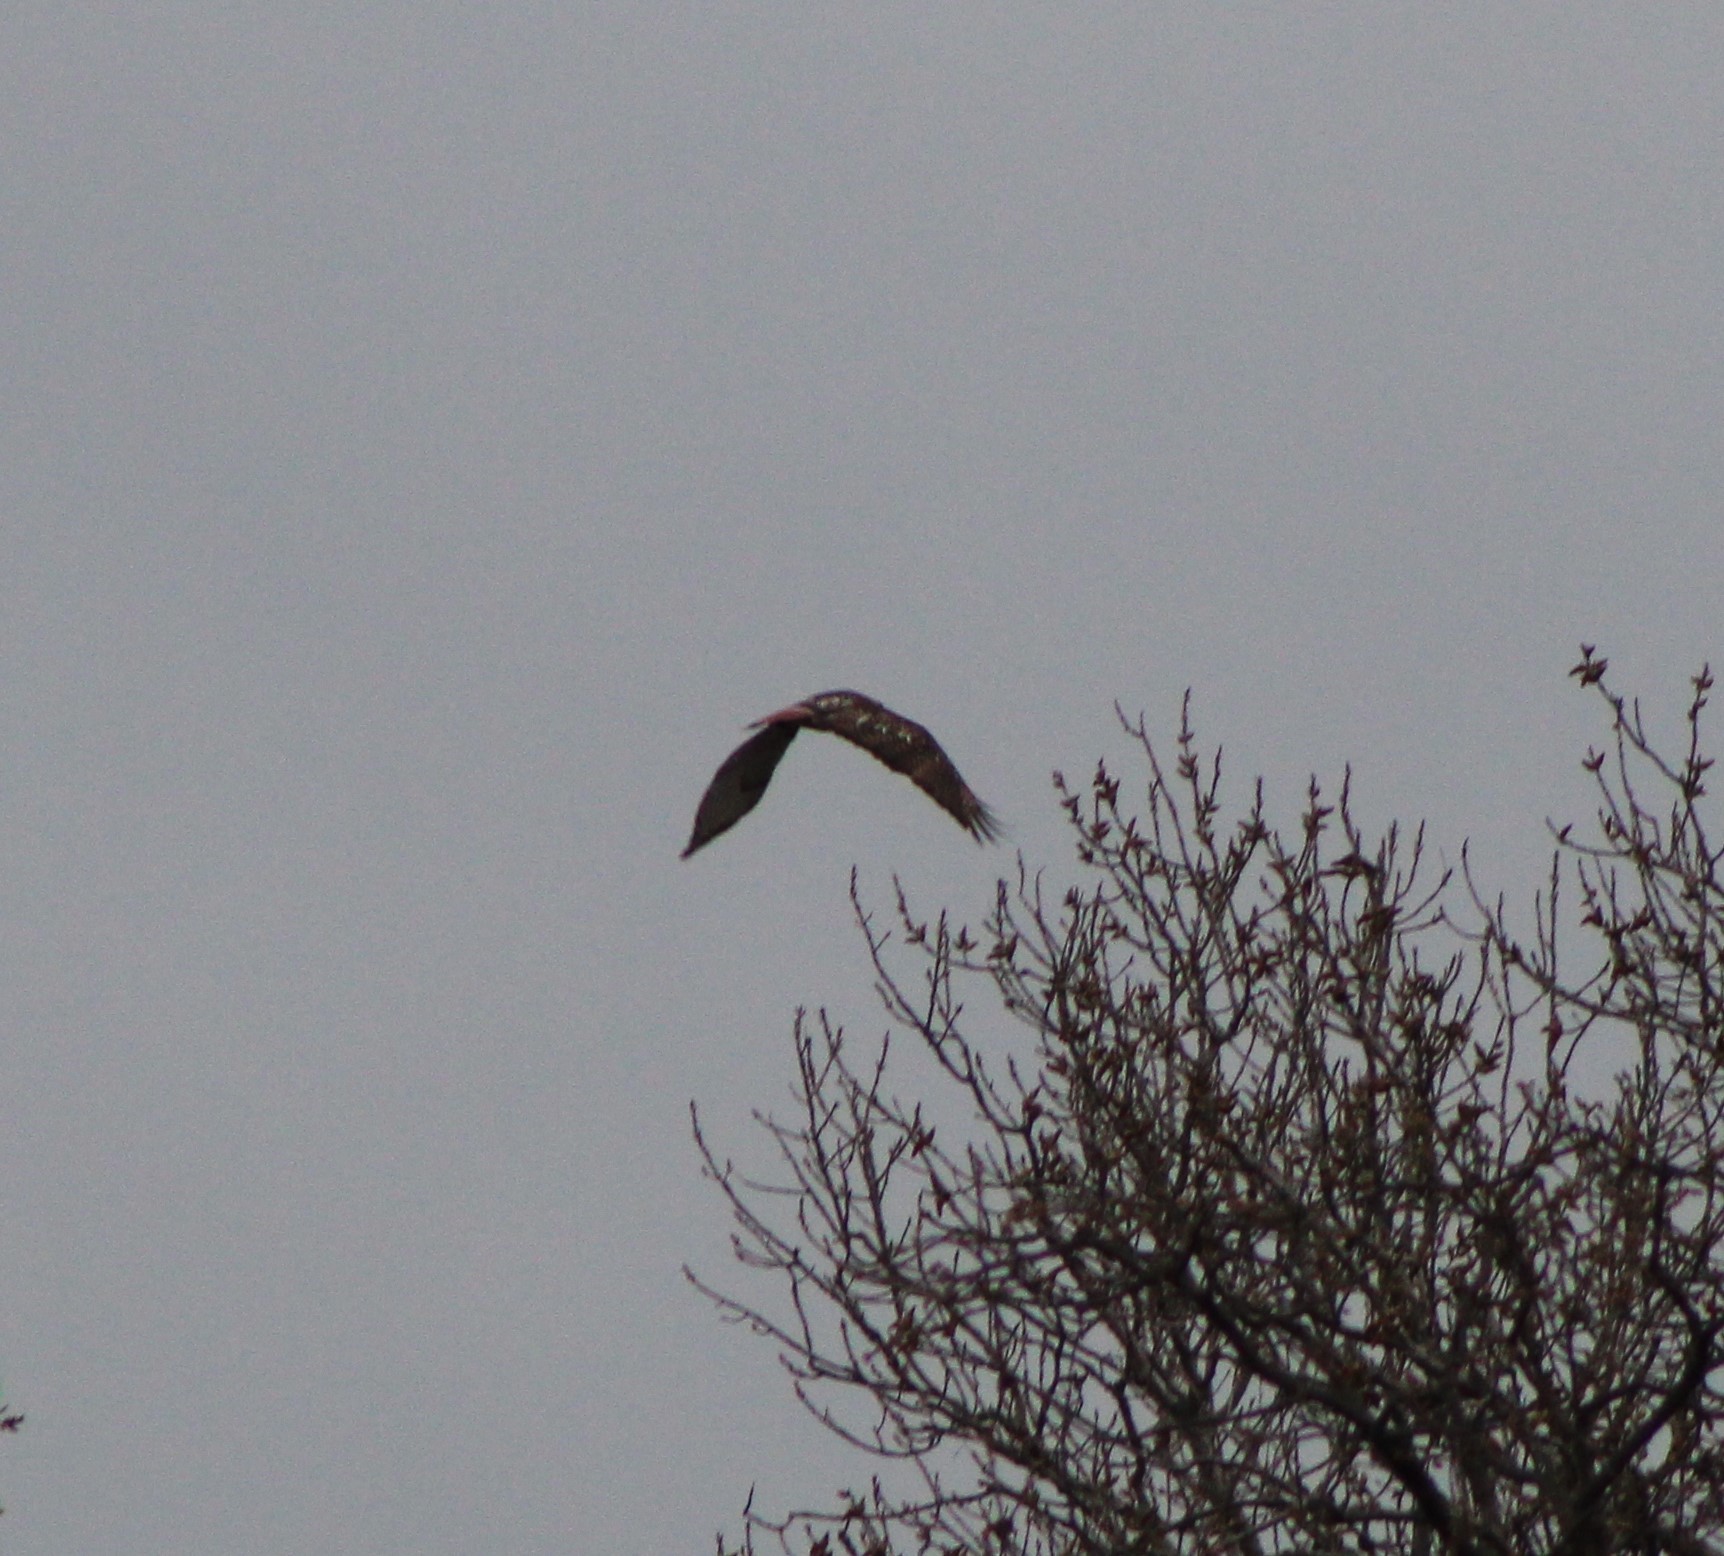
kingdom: Animalia
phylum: Chordata
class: Aves
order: Accipitriformes
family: Accipitridae
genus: Buteo
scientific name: Buteo jamaicensis
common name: Red-tailed hawk
